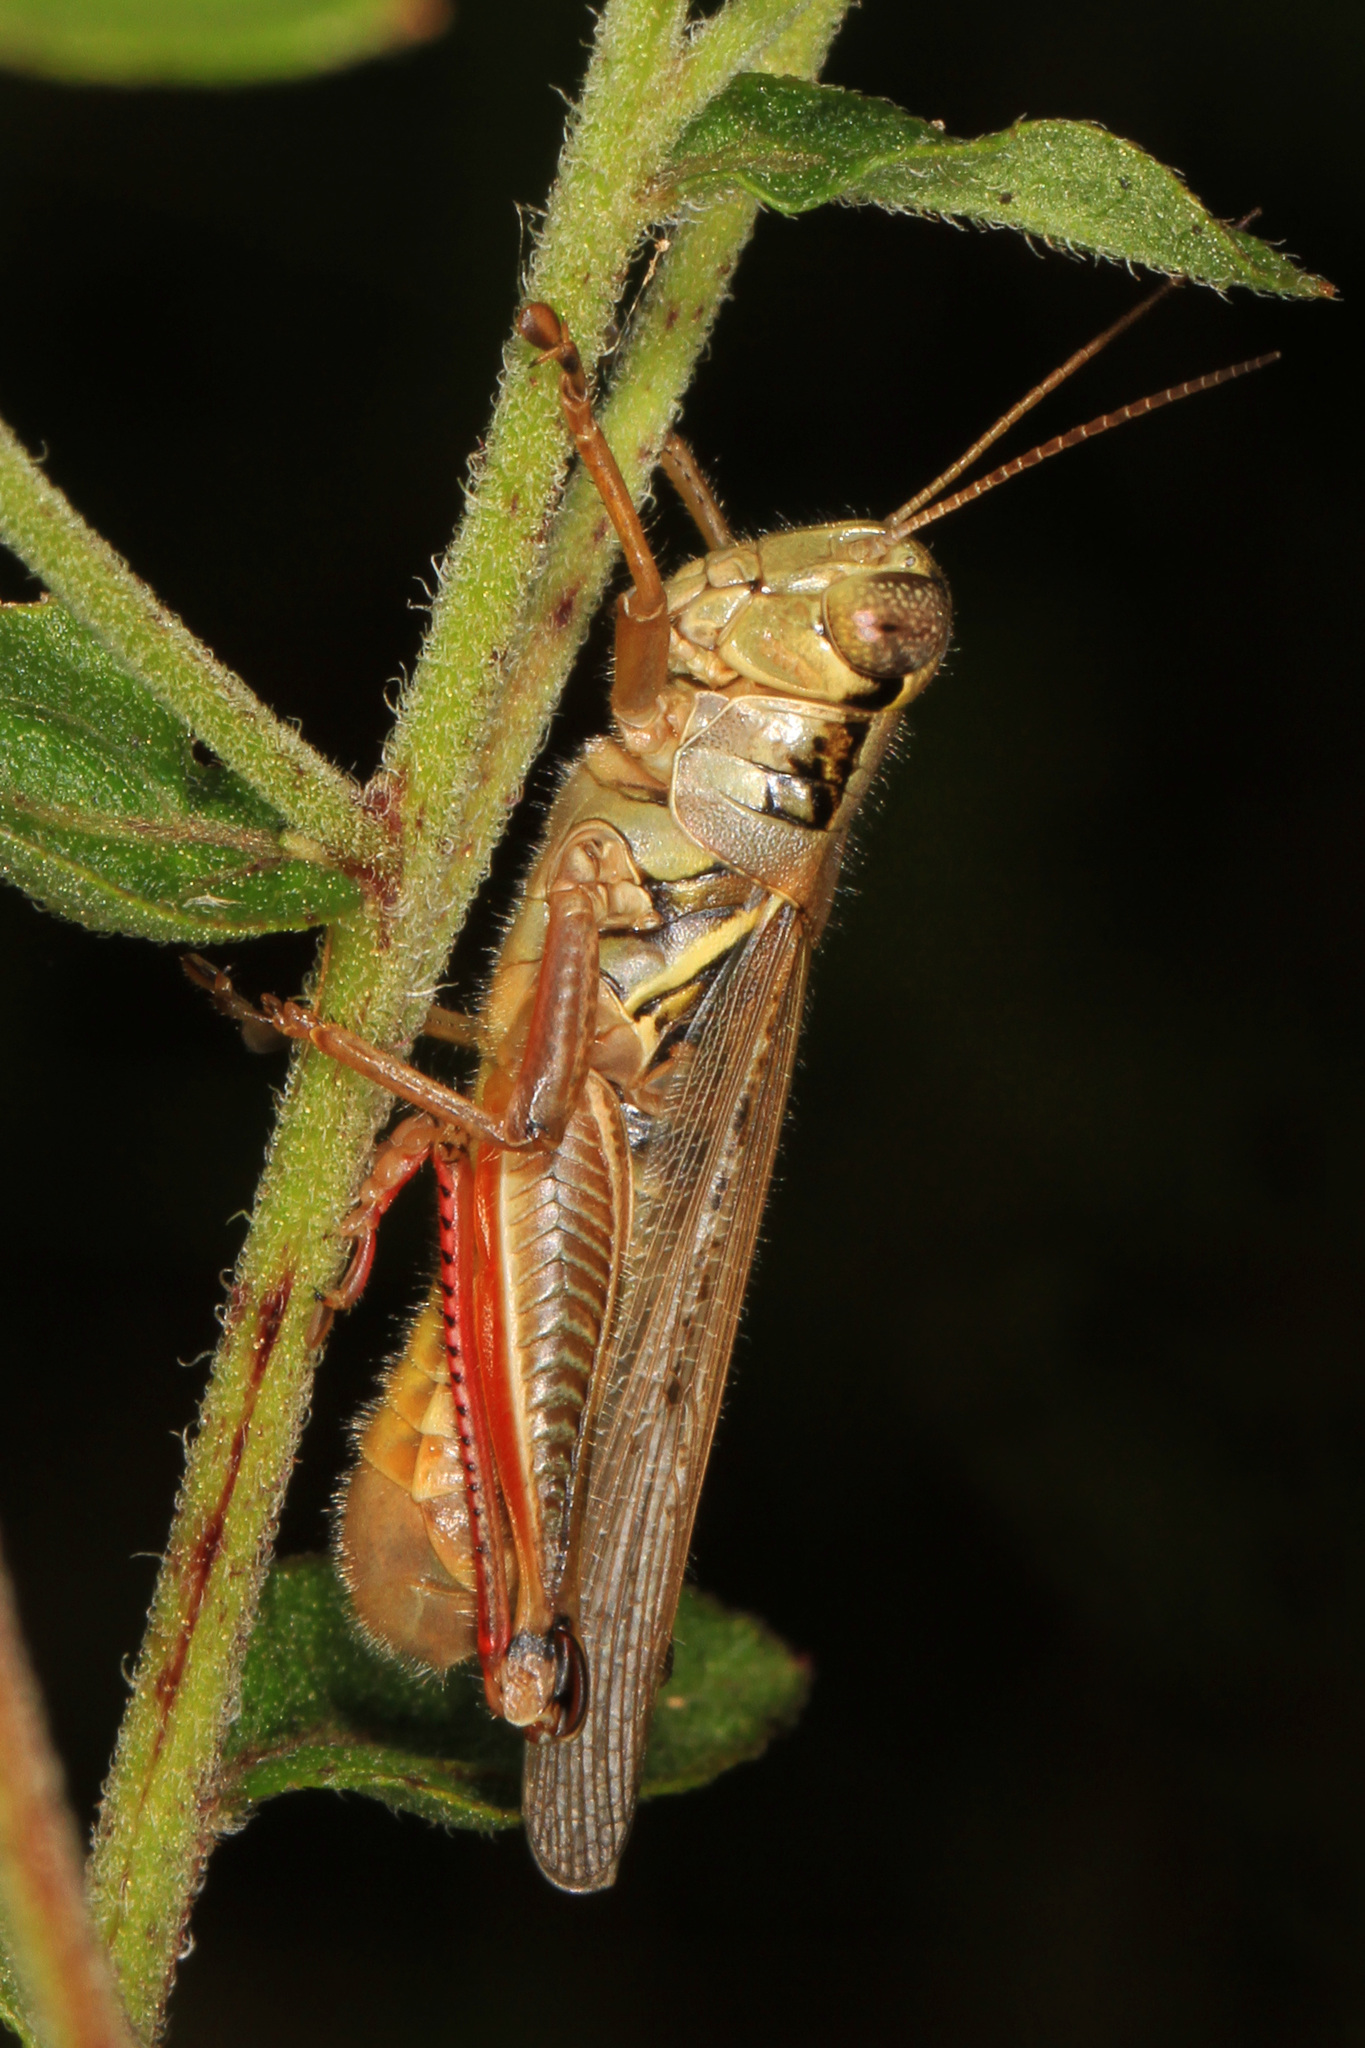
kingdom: Animalia
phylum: Arthropoda
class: Insecta
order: Orthoptera
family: Acrididae
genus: Melanoplus
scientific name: Melanoplus femurrubrum
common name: Red-legged grasshopper
